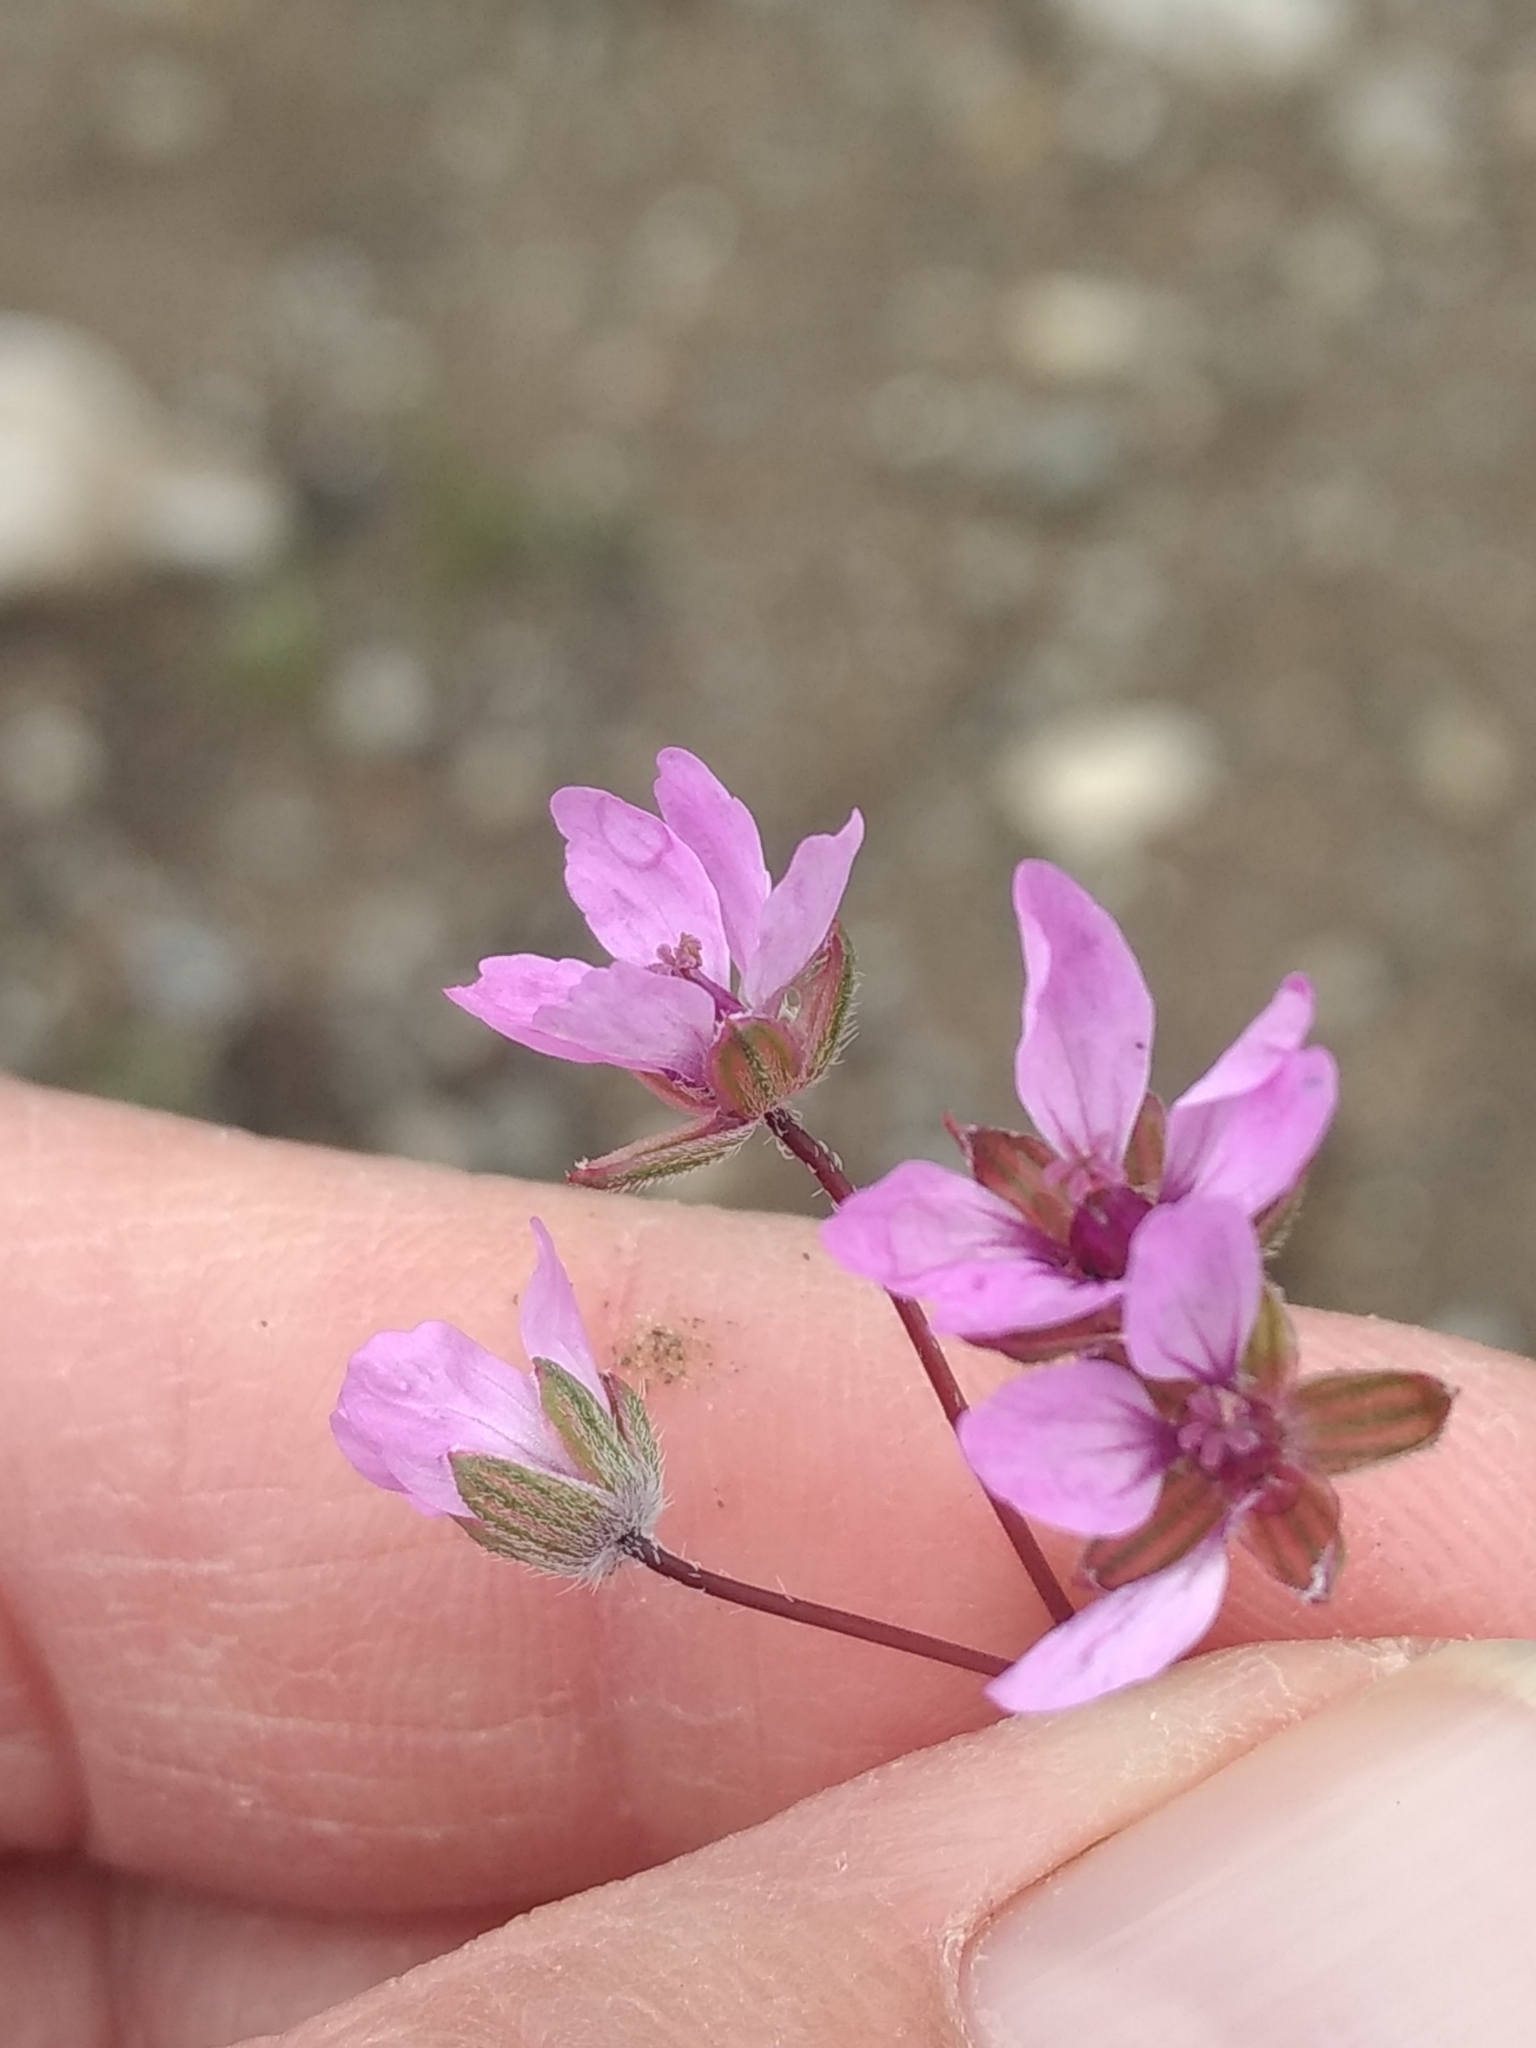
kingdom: Plantae
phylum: Tracheophyta
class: Magnoliopsida
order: Geraniales
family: Geraniaceae
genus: Erodium
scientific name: Erodium cicutarium
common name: Common stork's-bill
